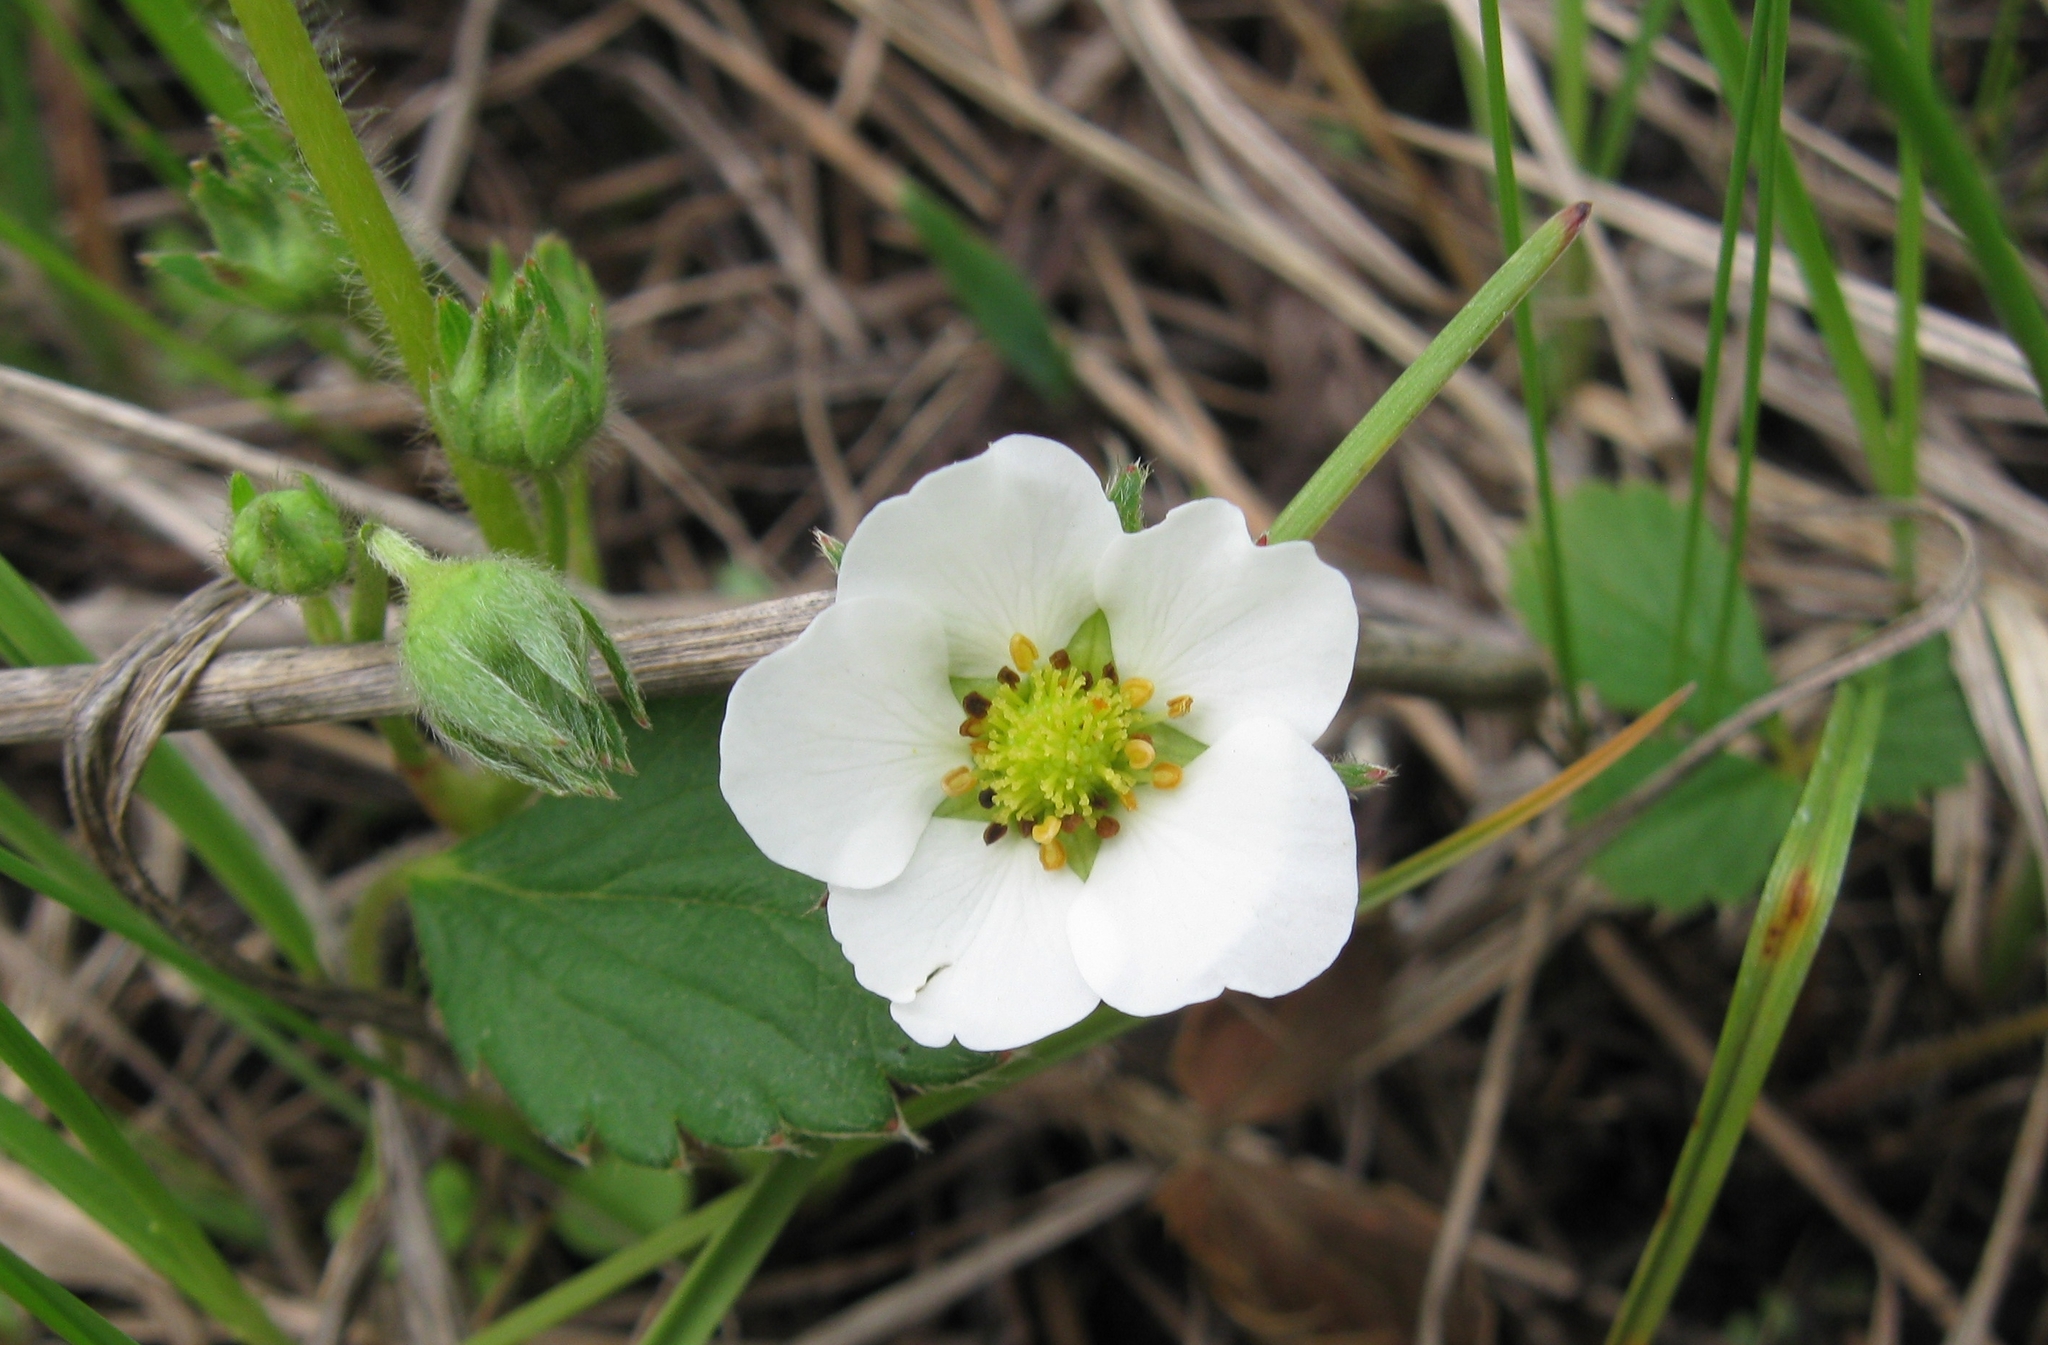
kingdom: Plantae
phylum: Tracheophyta
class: Magnoliopsida
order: Rosales
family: Rosaceae
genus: Fragaria
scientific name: Fragaria virginiana
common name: Thickleaved wild strawberry
